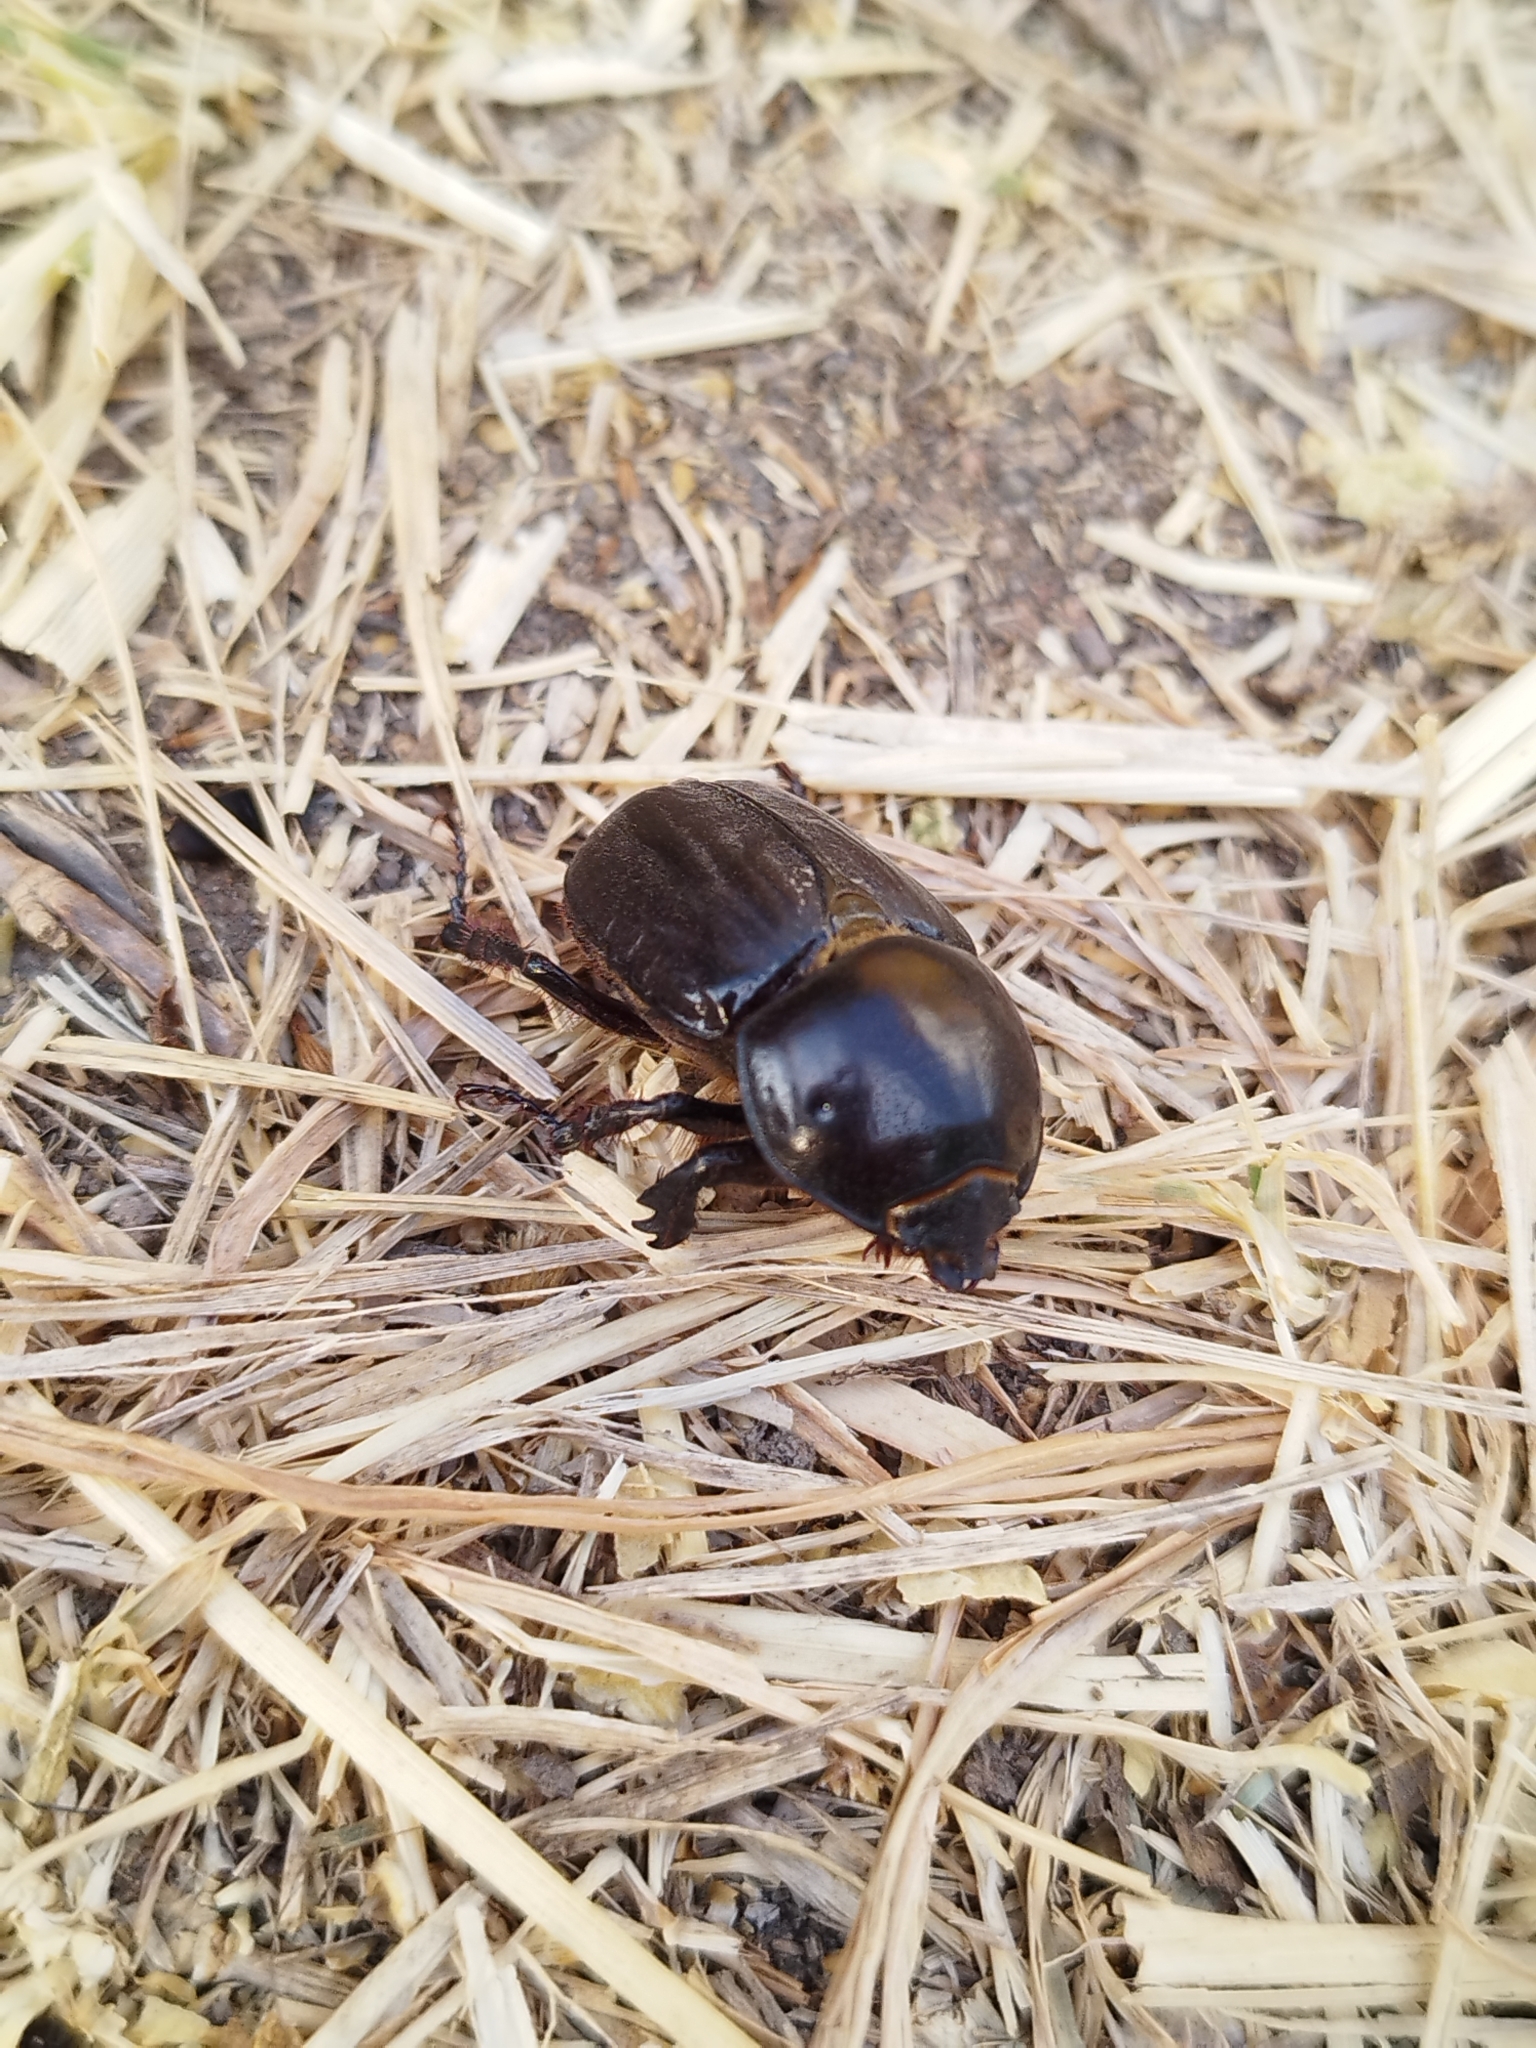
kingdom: Animalia
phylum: Arthropoda
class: Insecta
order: Coleoptera
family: Scarabaeidae
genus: Diloboderus
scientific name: Diloboderus abderus
